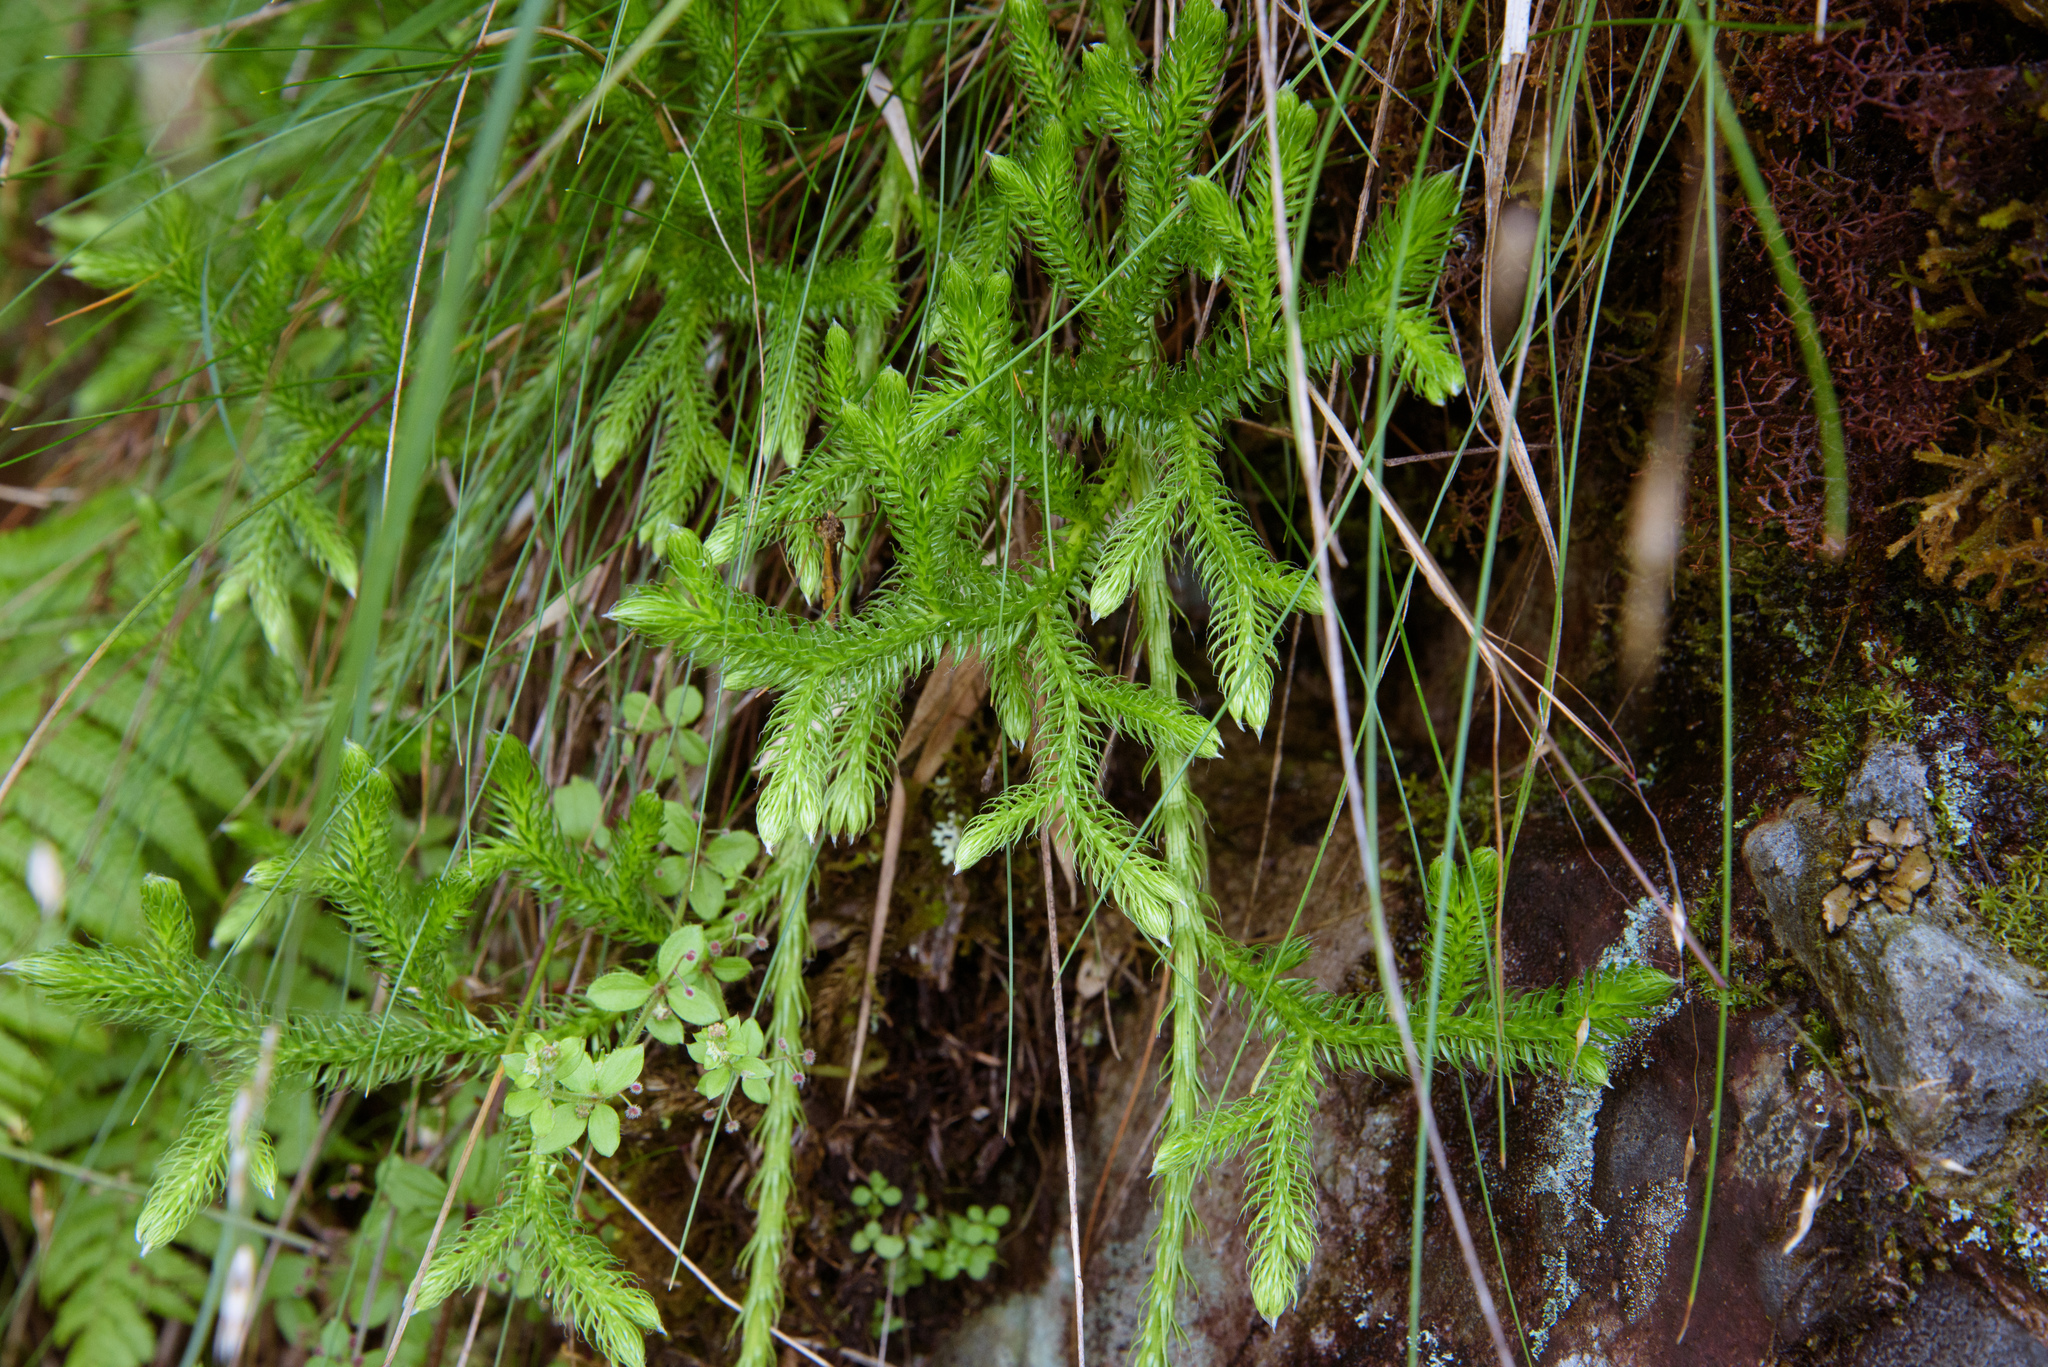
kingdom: Plantae
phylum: Tracheophyta
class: Lycopodiopsida
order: Lycopodiales
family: Lycopodiaceae
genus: Lycopodium
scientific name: Lycopodium clavatum
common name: Stag's-horn clubmoss
